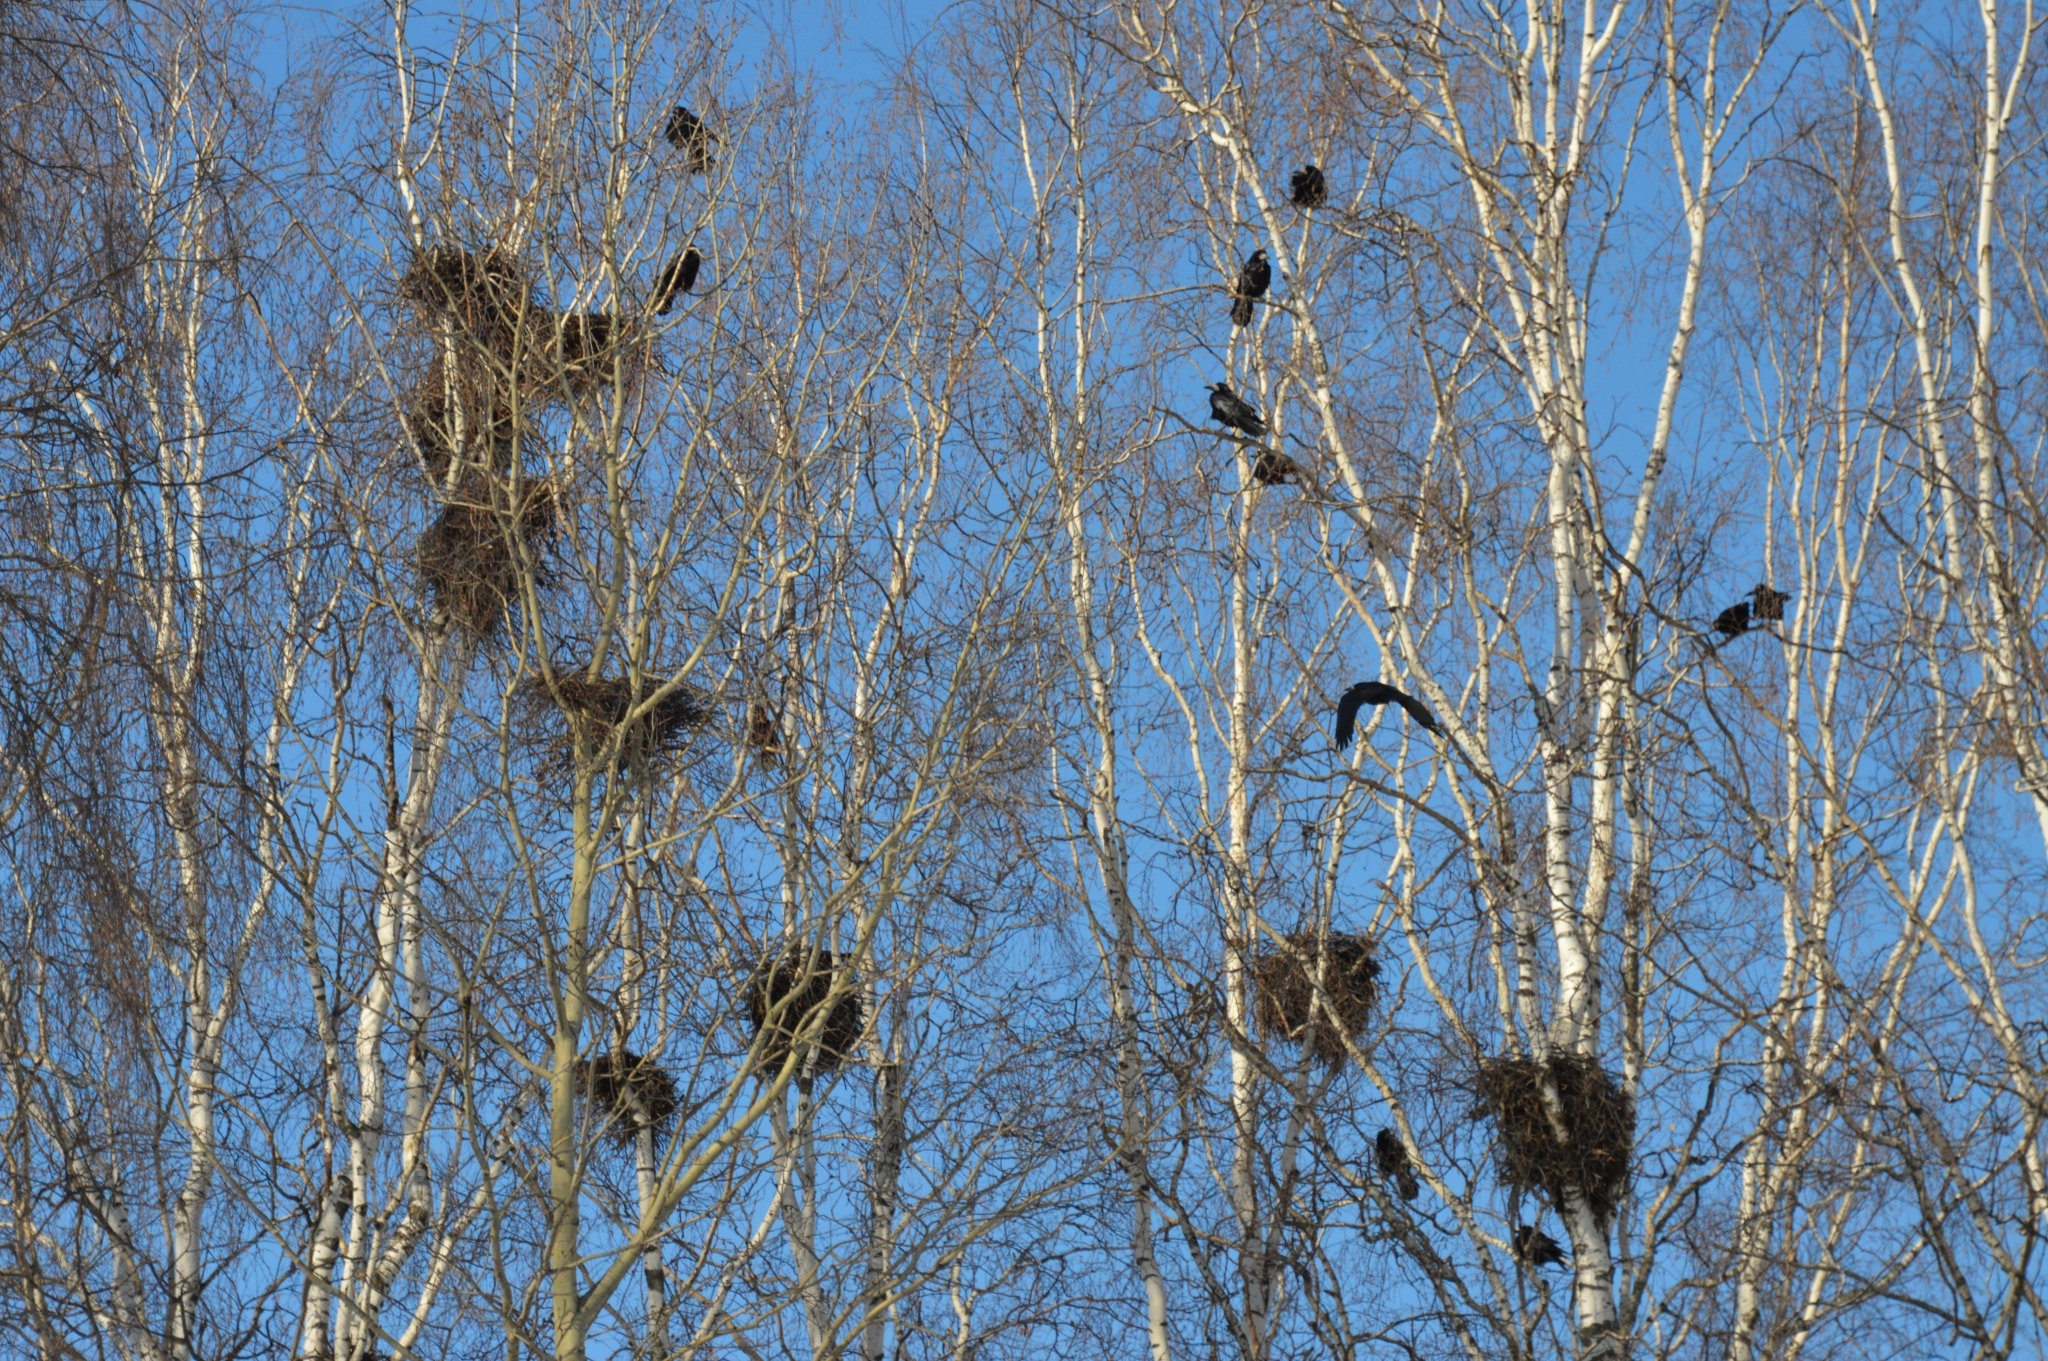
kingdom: Animalia
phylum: Chordata
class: Aves
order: Passeriformes
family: Corvidae
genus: Corvus
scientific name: Corvus frugilegus
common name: Rook
